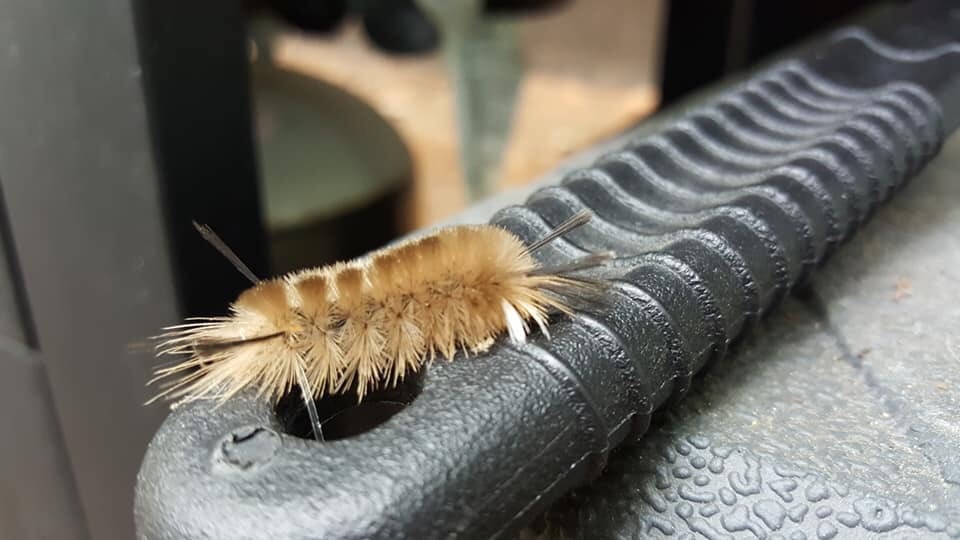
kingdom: Animalia
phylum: Arthropoda
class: Insecta
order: Lepidoptera
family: Erebidae
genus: Halysidota
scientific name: Halysidota tessellaris
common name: Banded tussock moth
